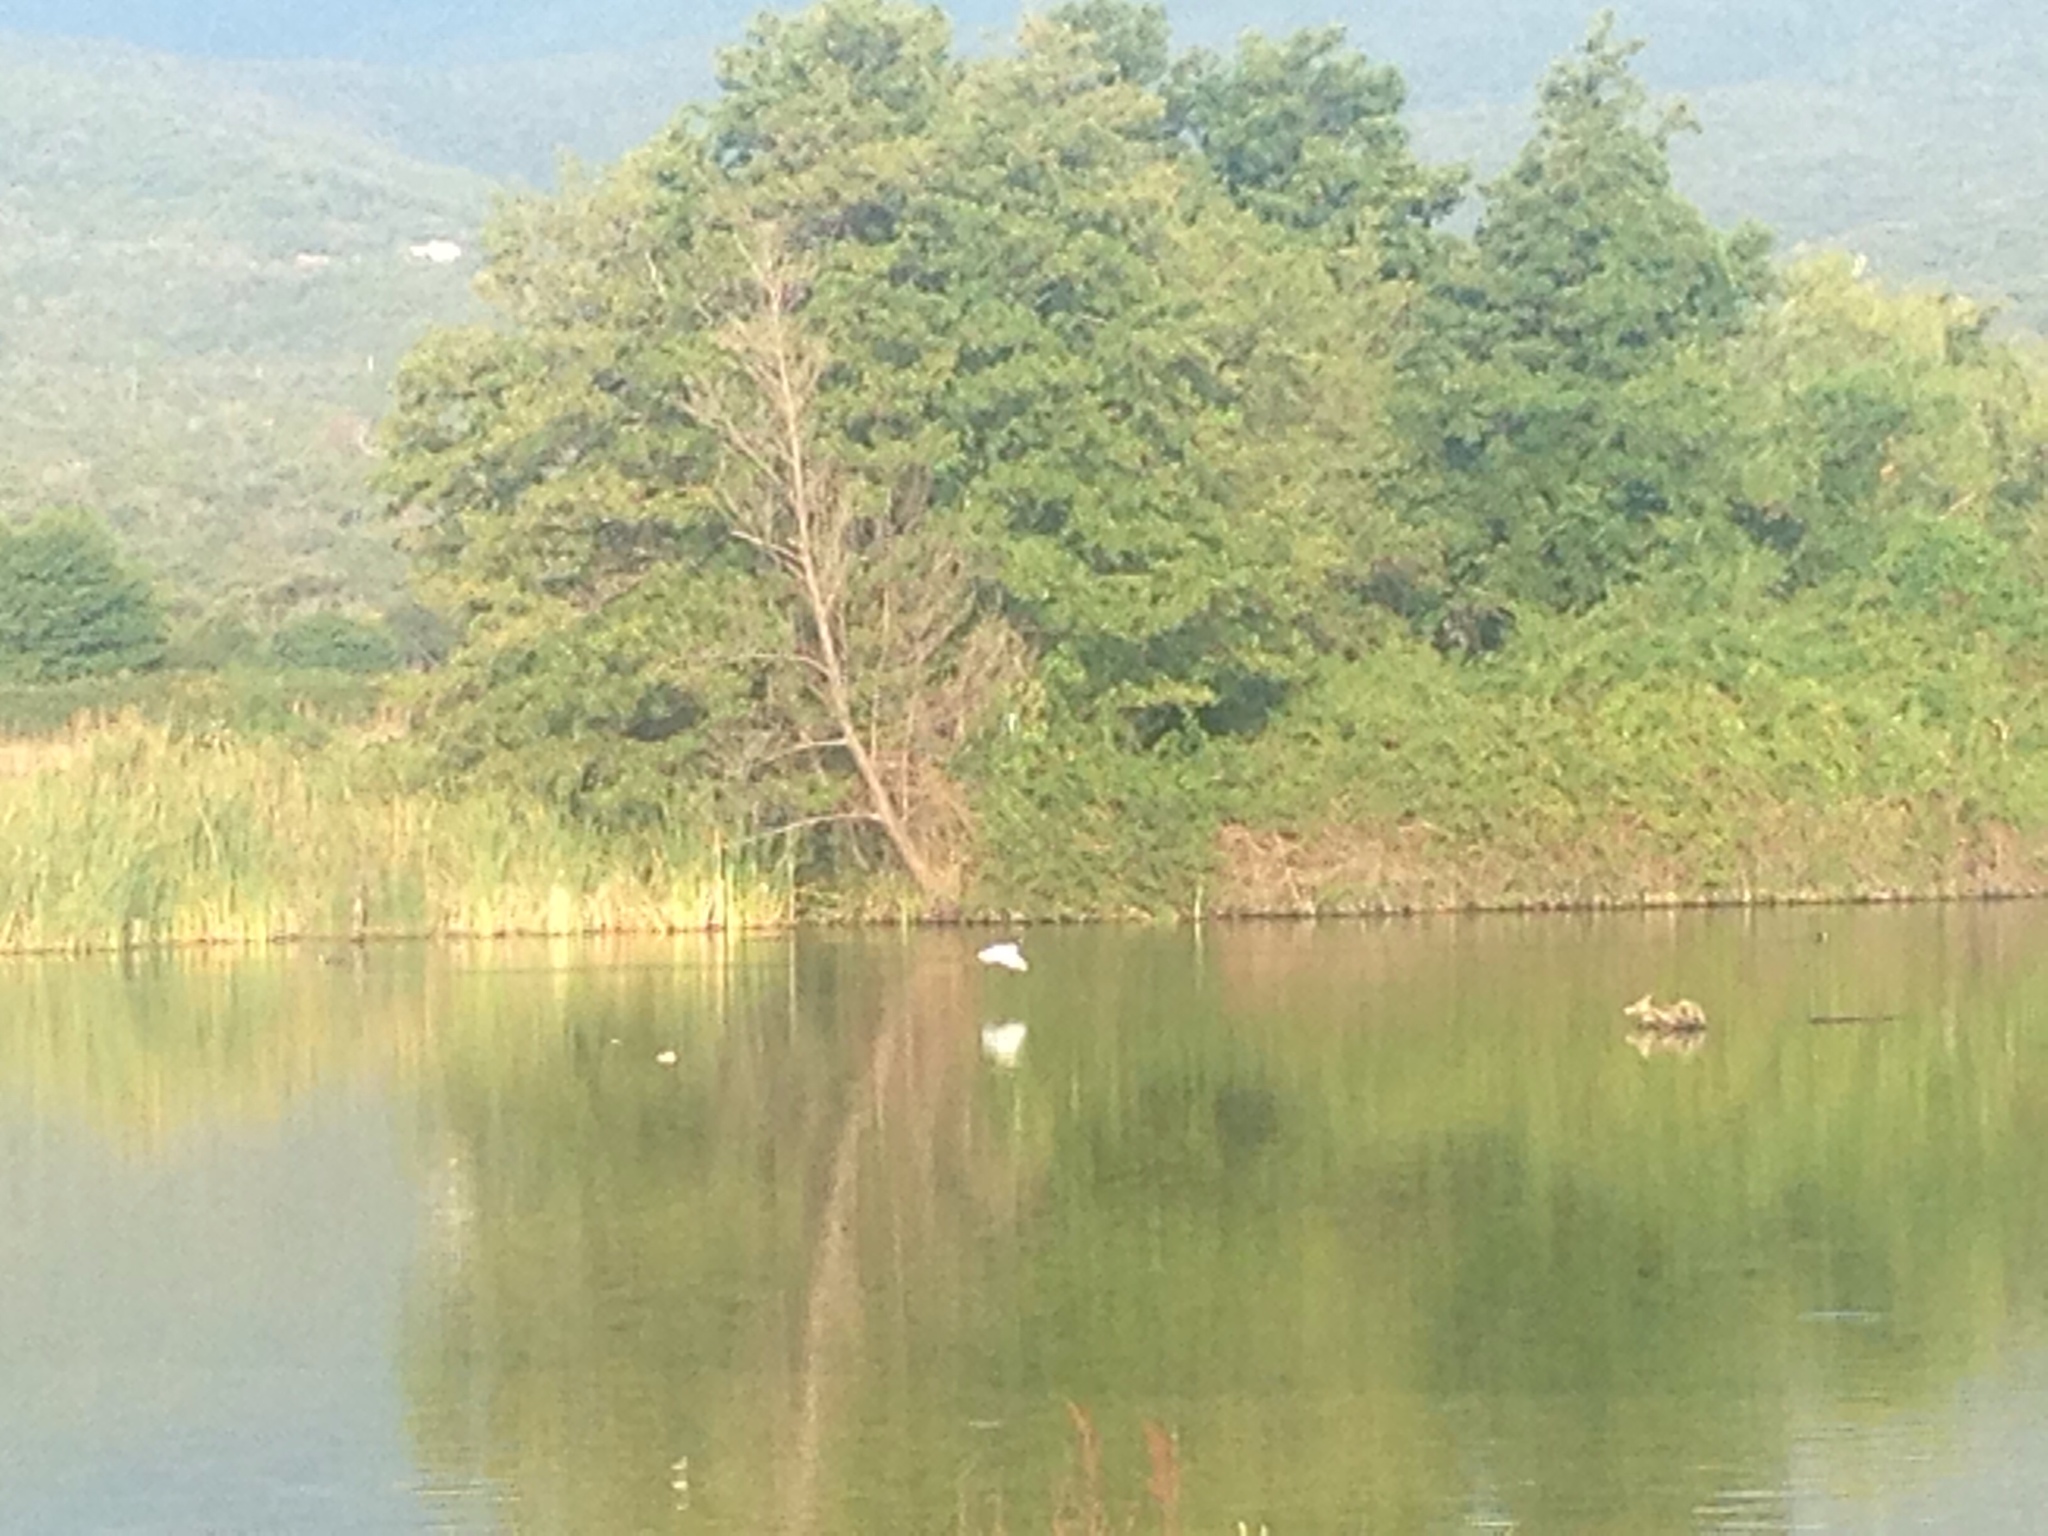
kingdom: Animalia
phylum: Chordata
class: Aves
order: Pelecaniformes
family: Ardeidae
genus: Egretta
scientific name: Egretta garzetta
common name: Little egret
